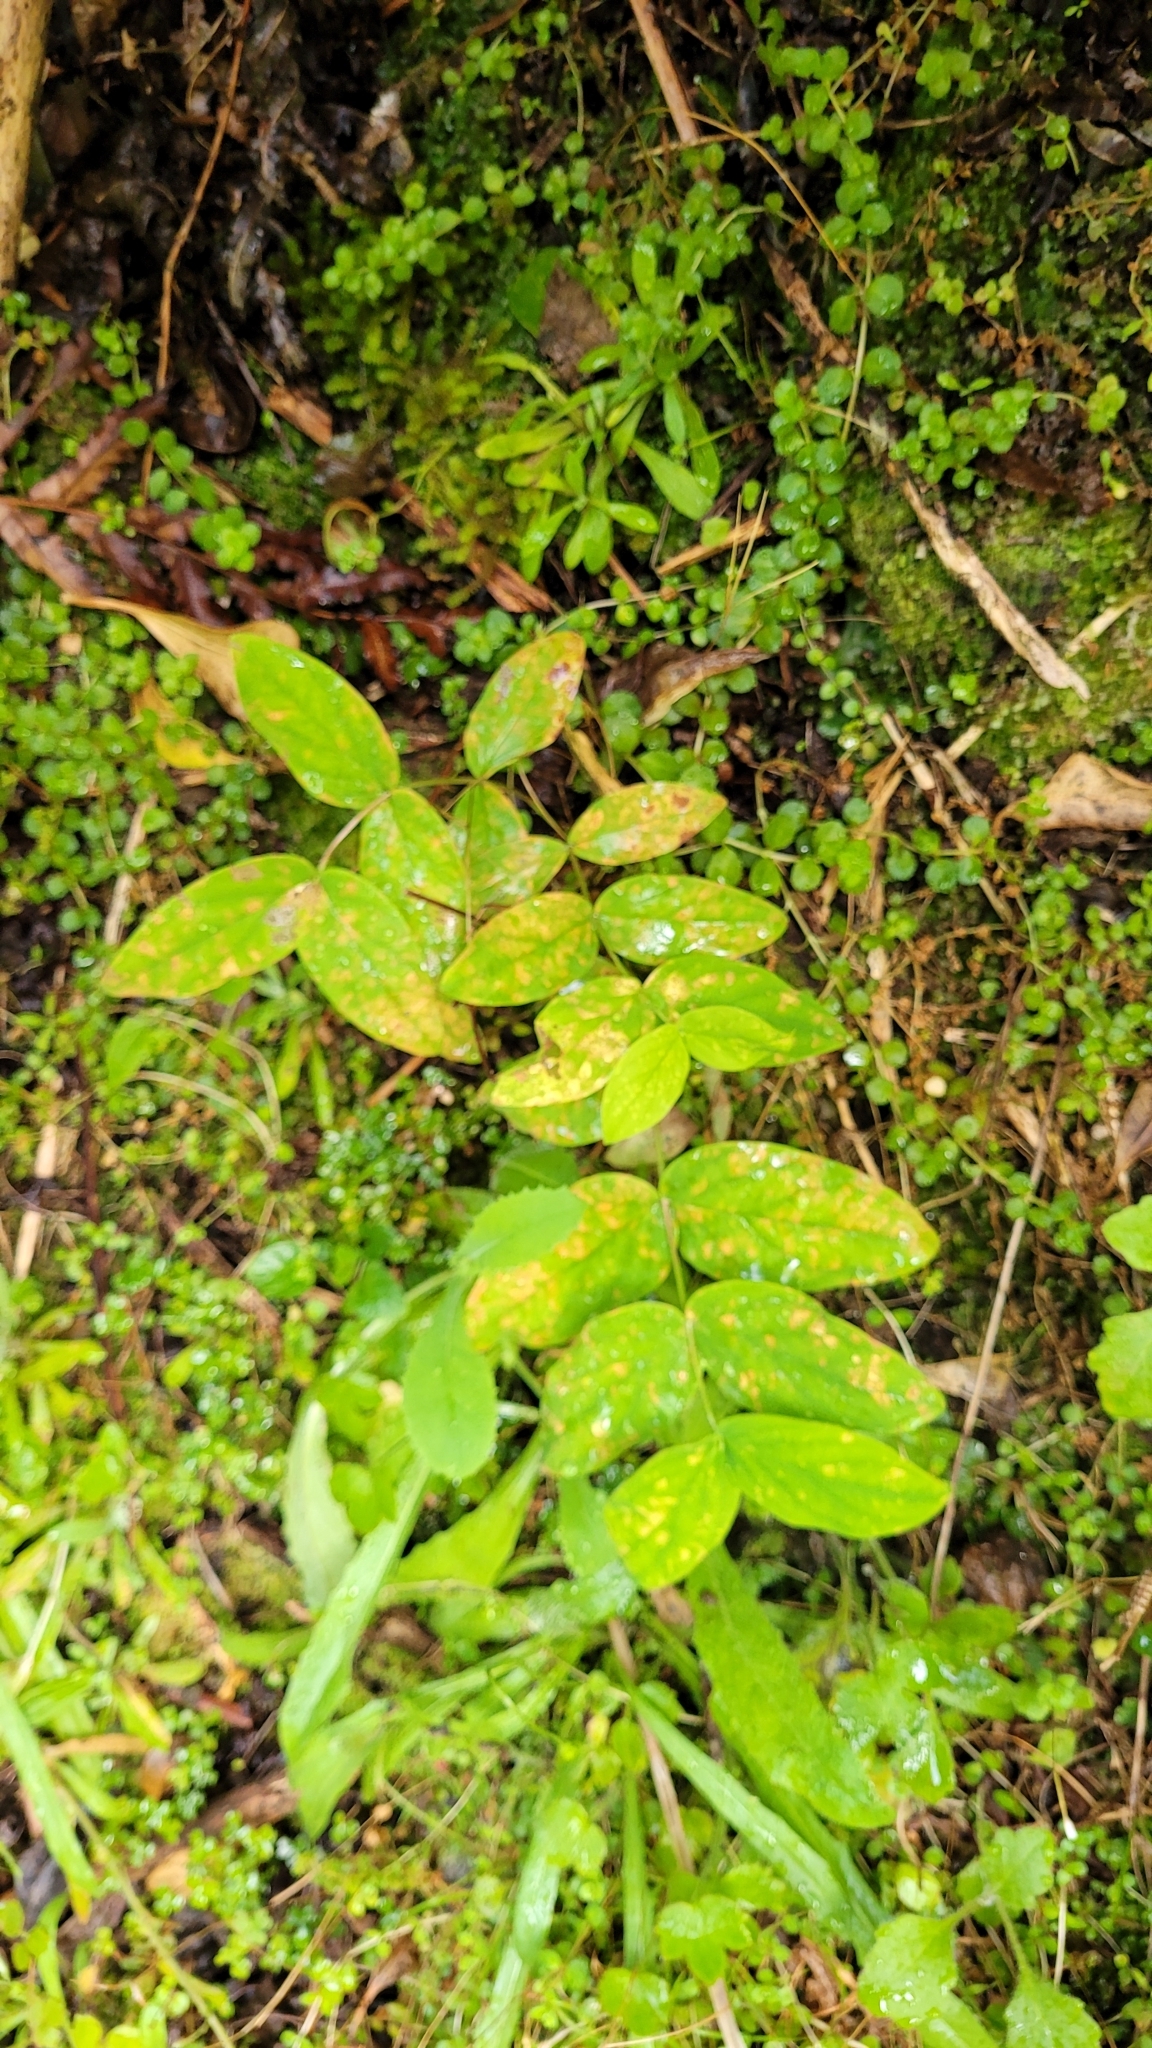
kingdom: Plantae
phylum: Tracheophyta
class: Magnoliopsida
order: Malpighiales
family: Hypericaceae
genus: Hypericum
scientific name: Hypericum androsaemum
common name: Sweet-amber
